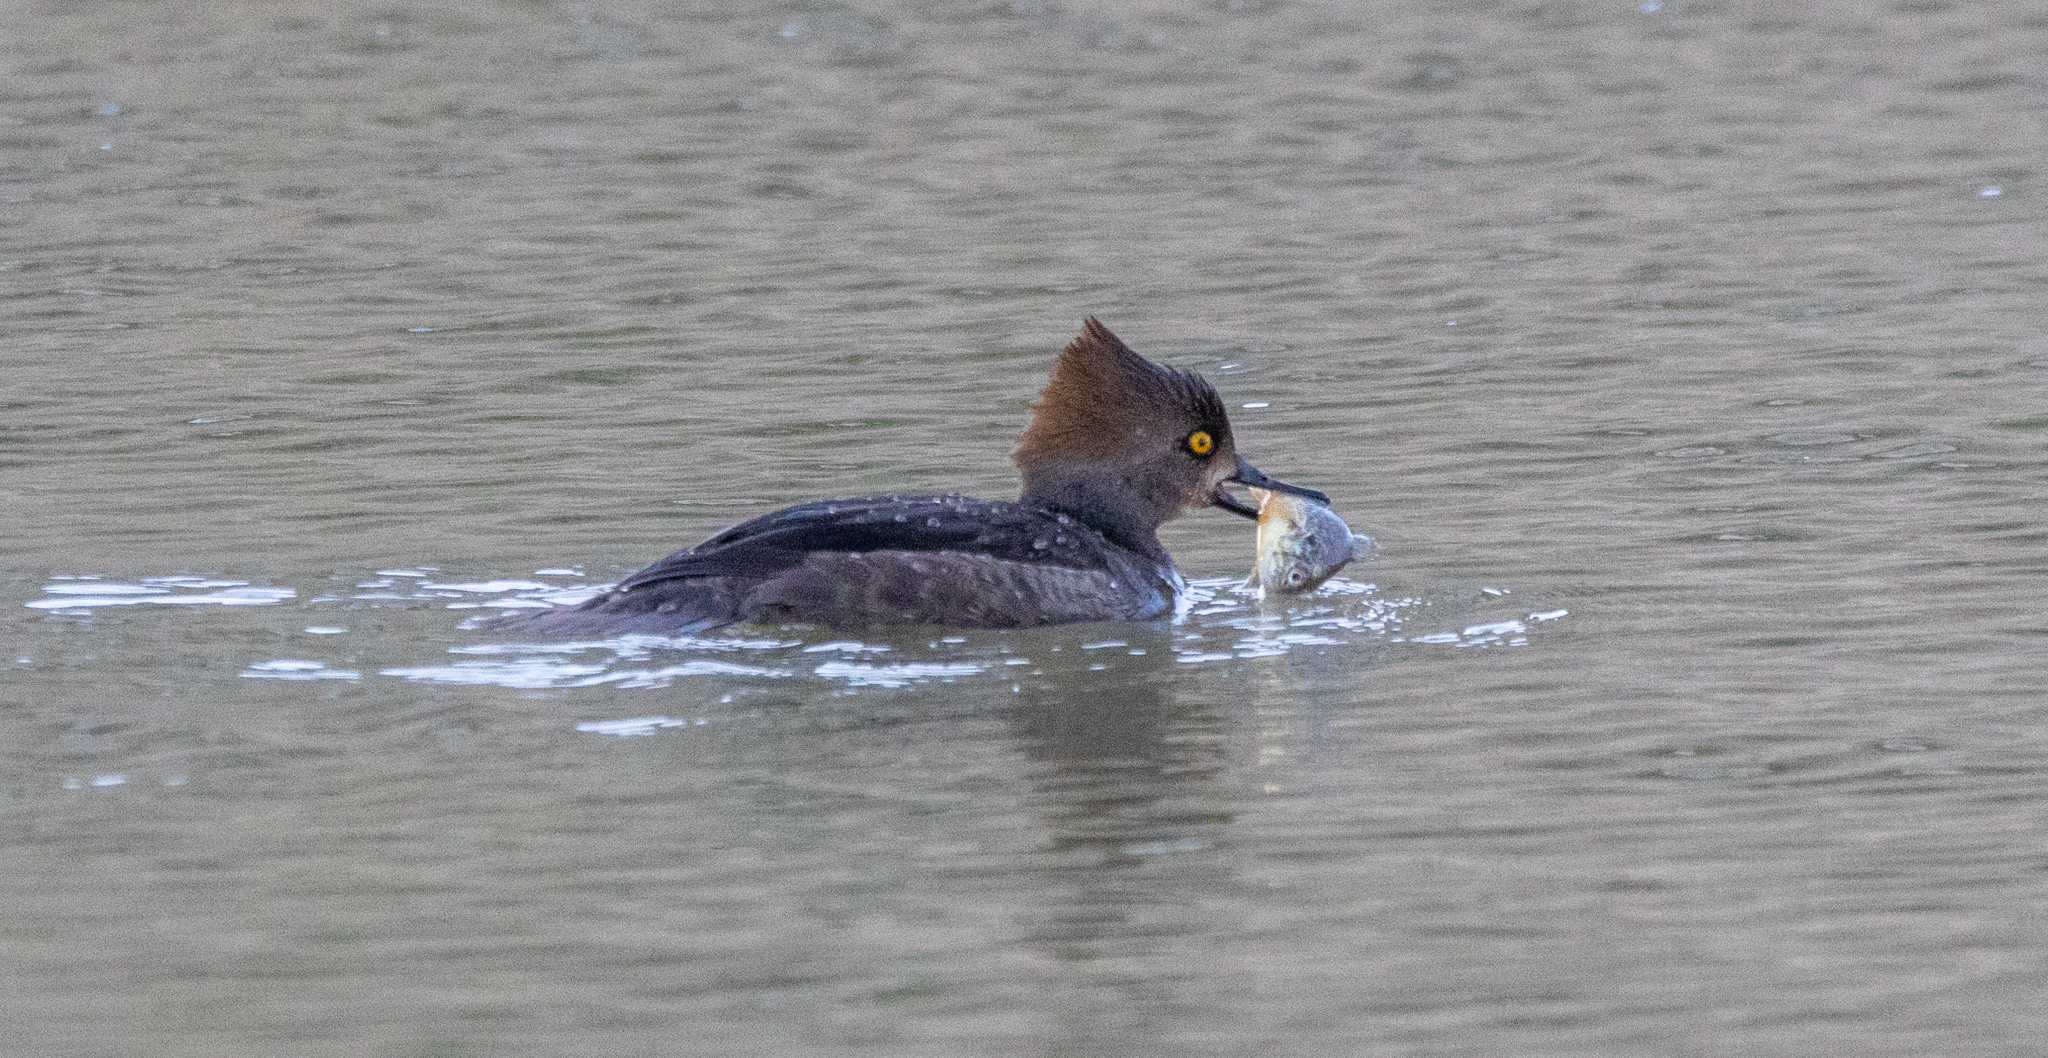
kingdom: Animalia
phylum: Chordata
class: Aves
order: Anseriformes
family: Anatidae
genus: Lophodytes
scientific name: Lophodytes cucullatus
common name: Hooded merganser
